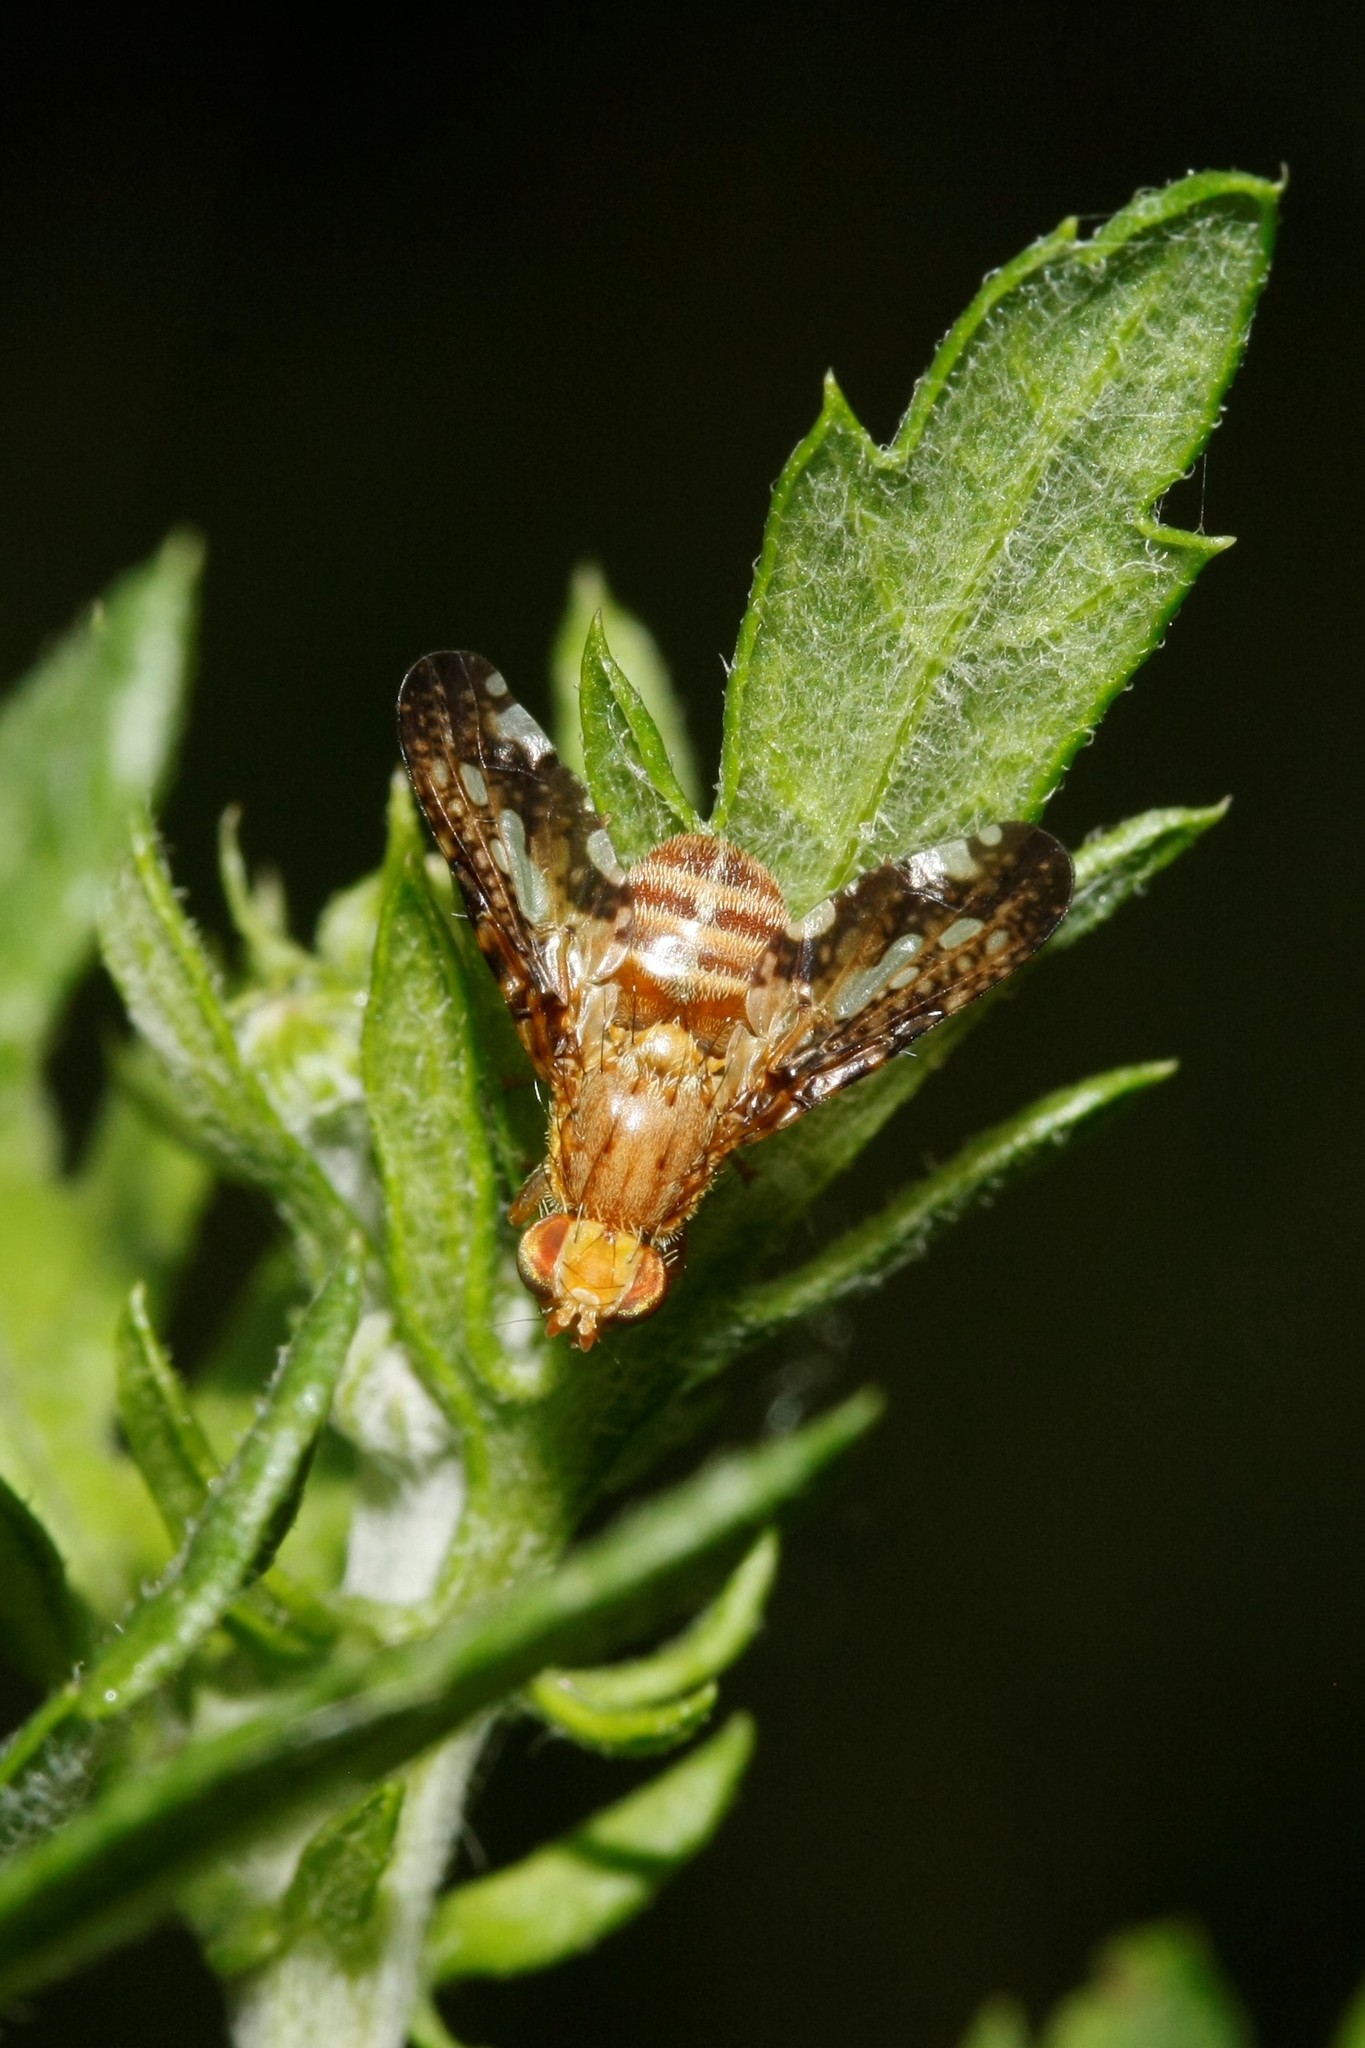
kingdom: Animalia
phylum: Arthropoda
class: Insecta
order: Diptera
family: Tephritidae
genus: Merzomyia
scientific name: Merzomyia westermanni
